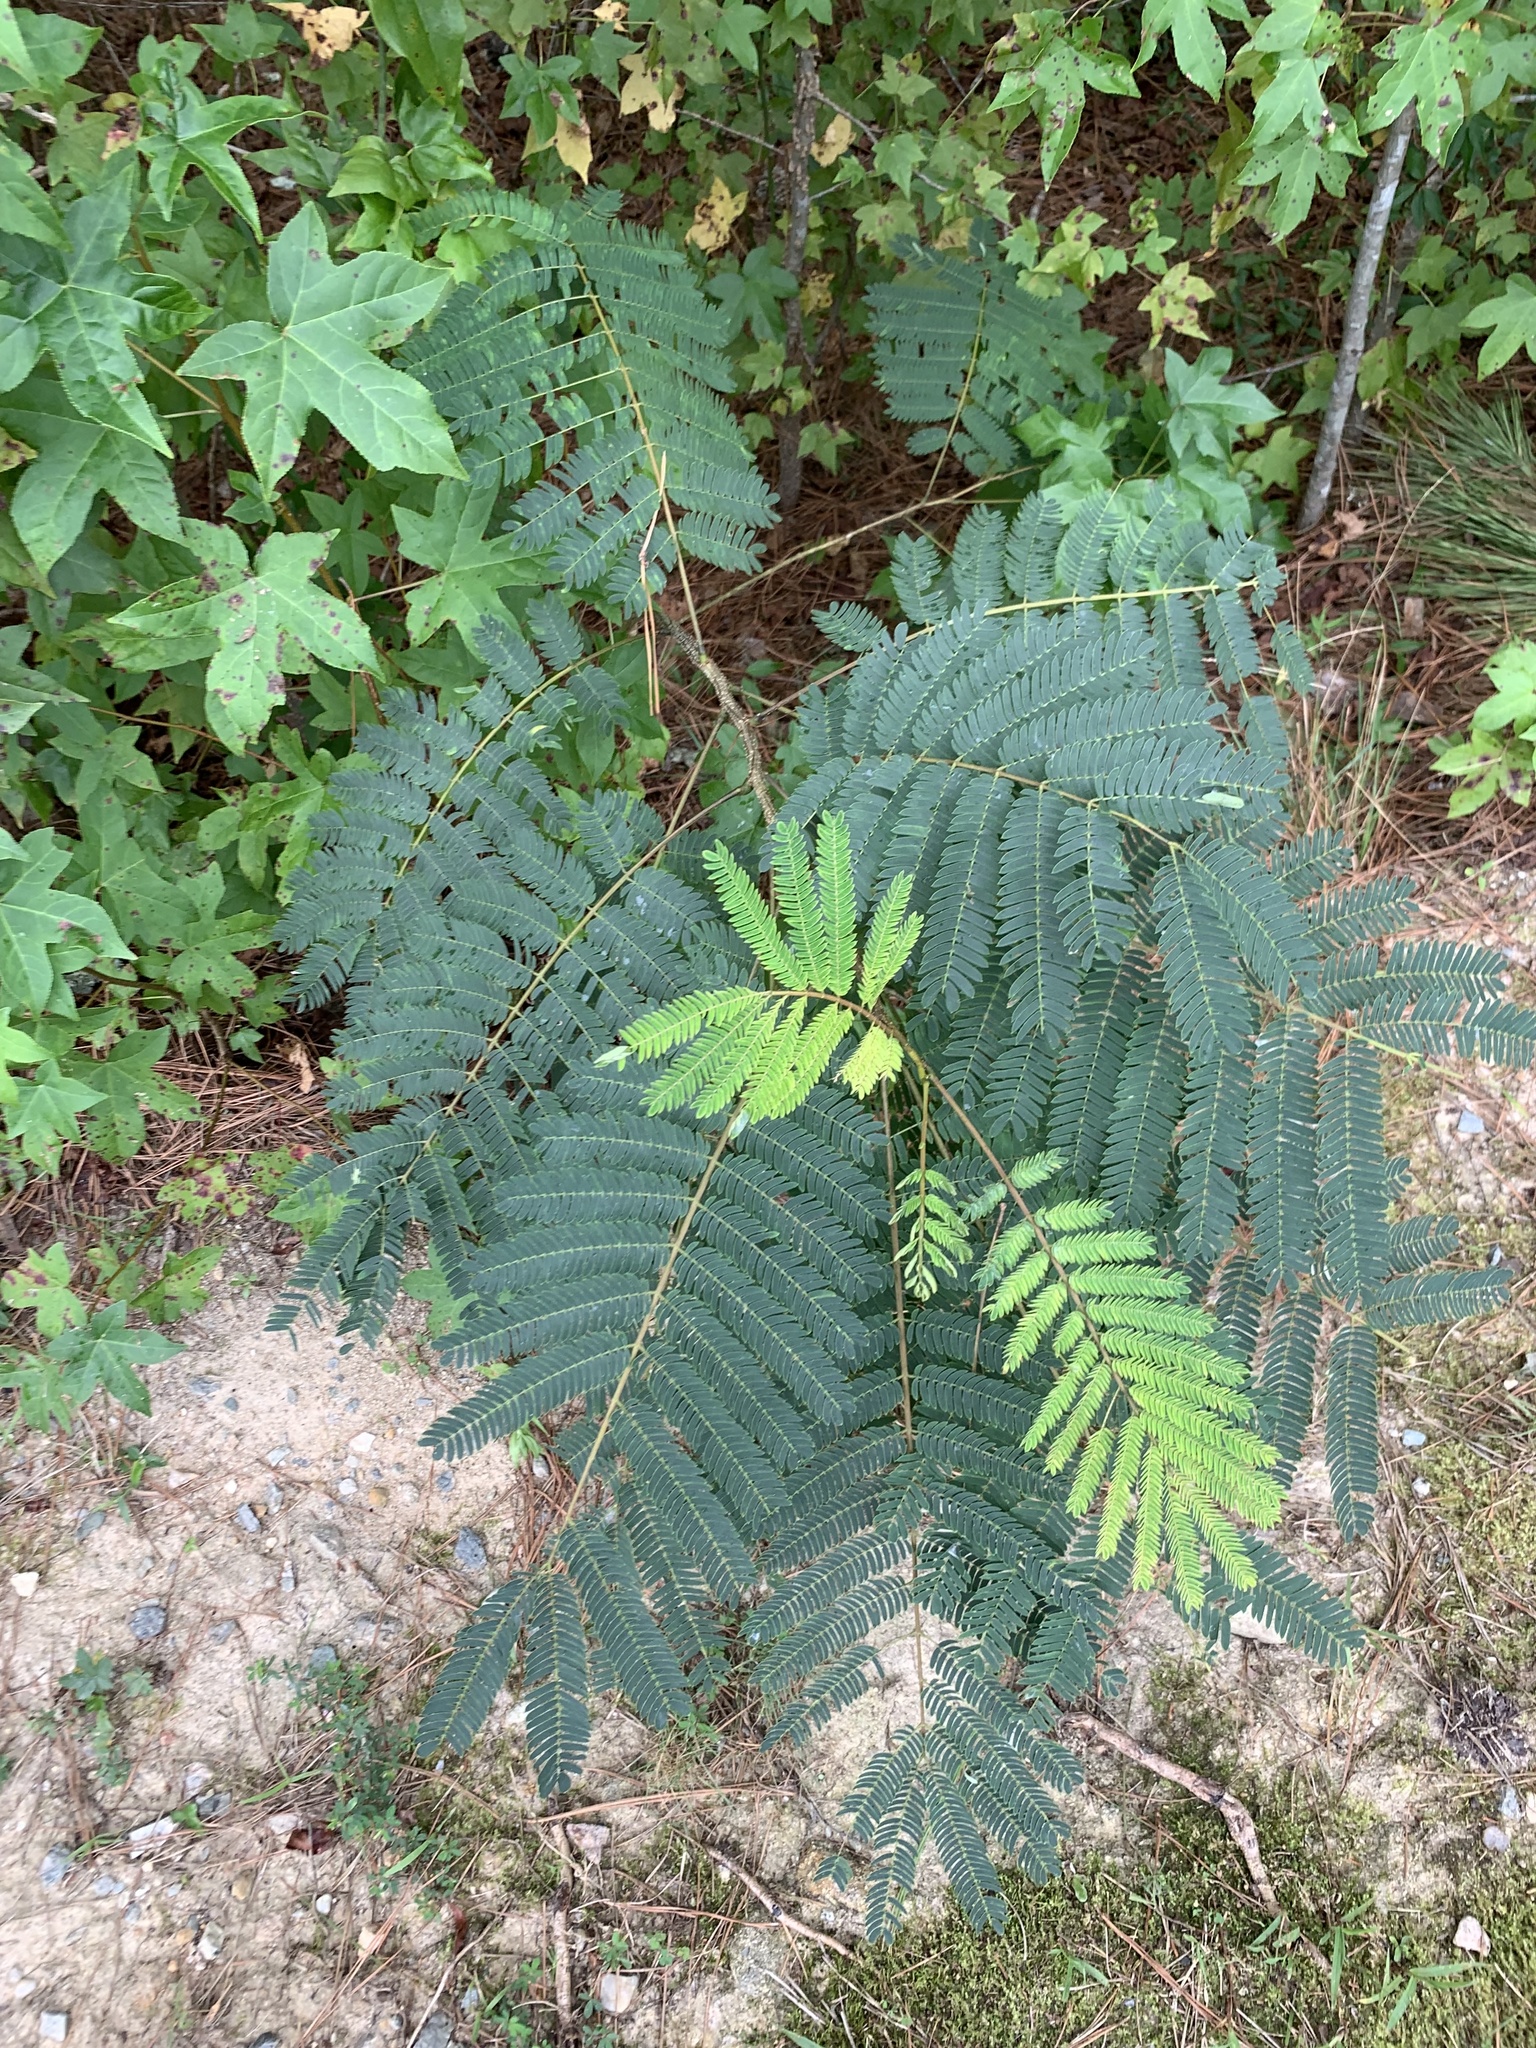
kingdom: Plantae
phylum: Tracheophyta
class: Magnoliopsida
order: Fabales
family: Fabaceae
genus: Albizia
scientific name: Albizia julibrissin
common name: Silktree
